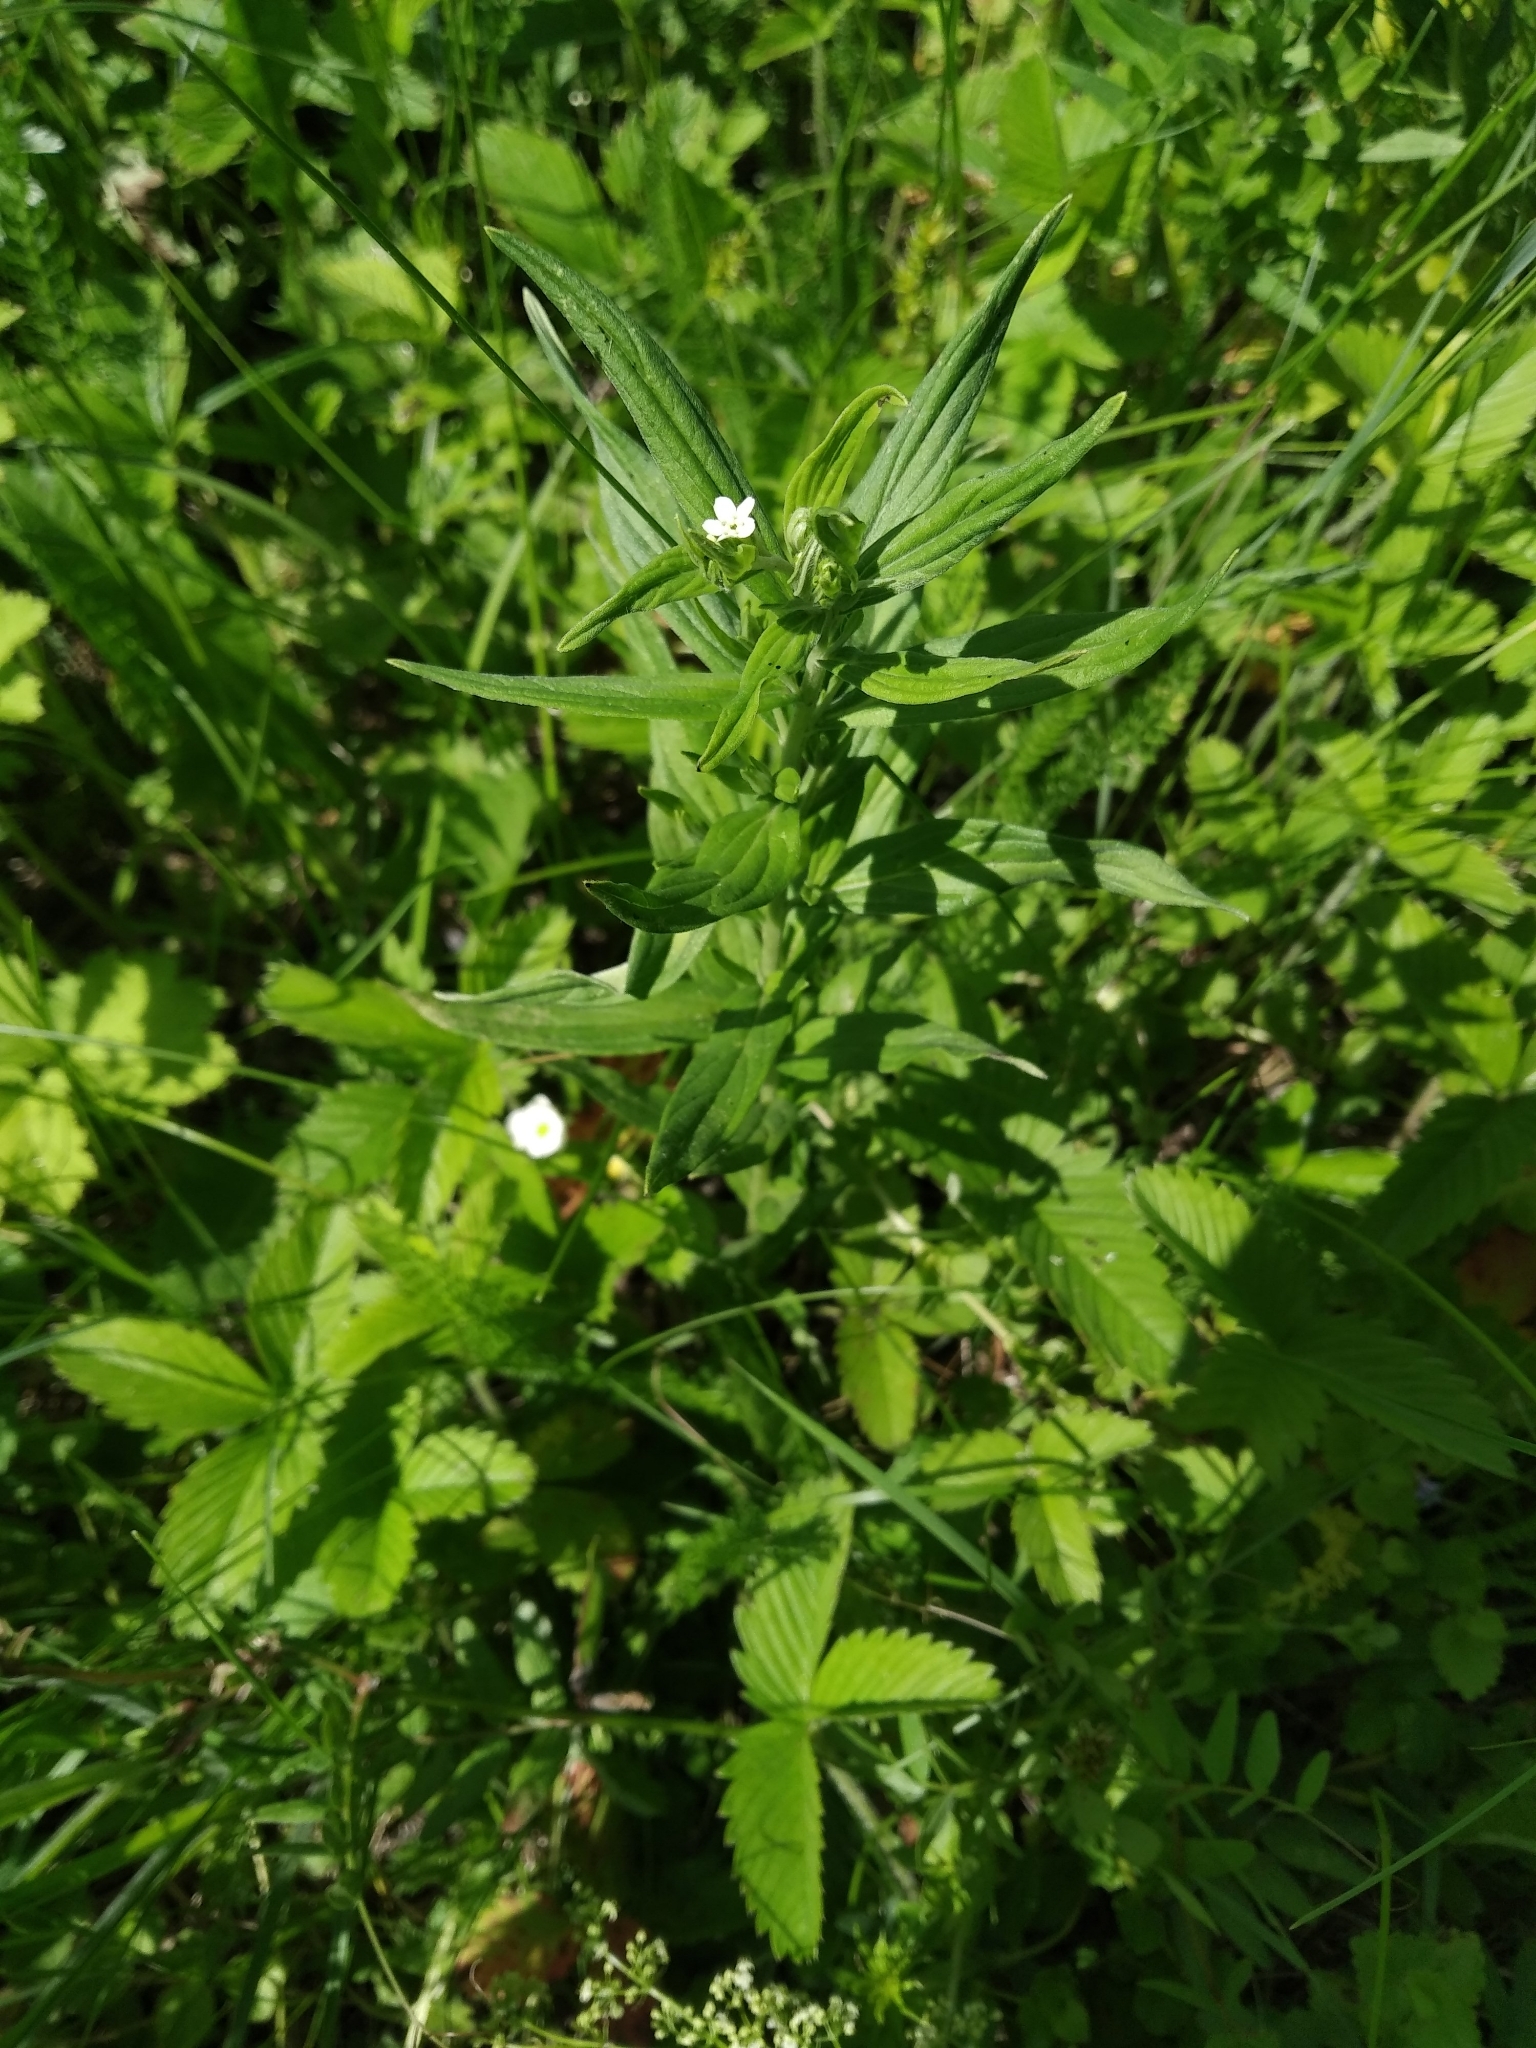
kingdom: Plantae
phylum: Tracheophyta
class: Magnoliopsida
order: Boraginales
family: Boraginaceae
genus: Lithospermum
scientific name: Lithospermum officinale
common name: Common gromwell
